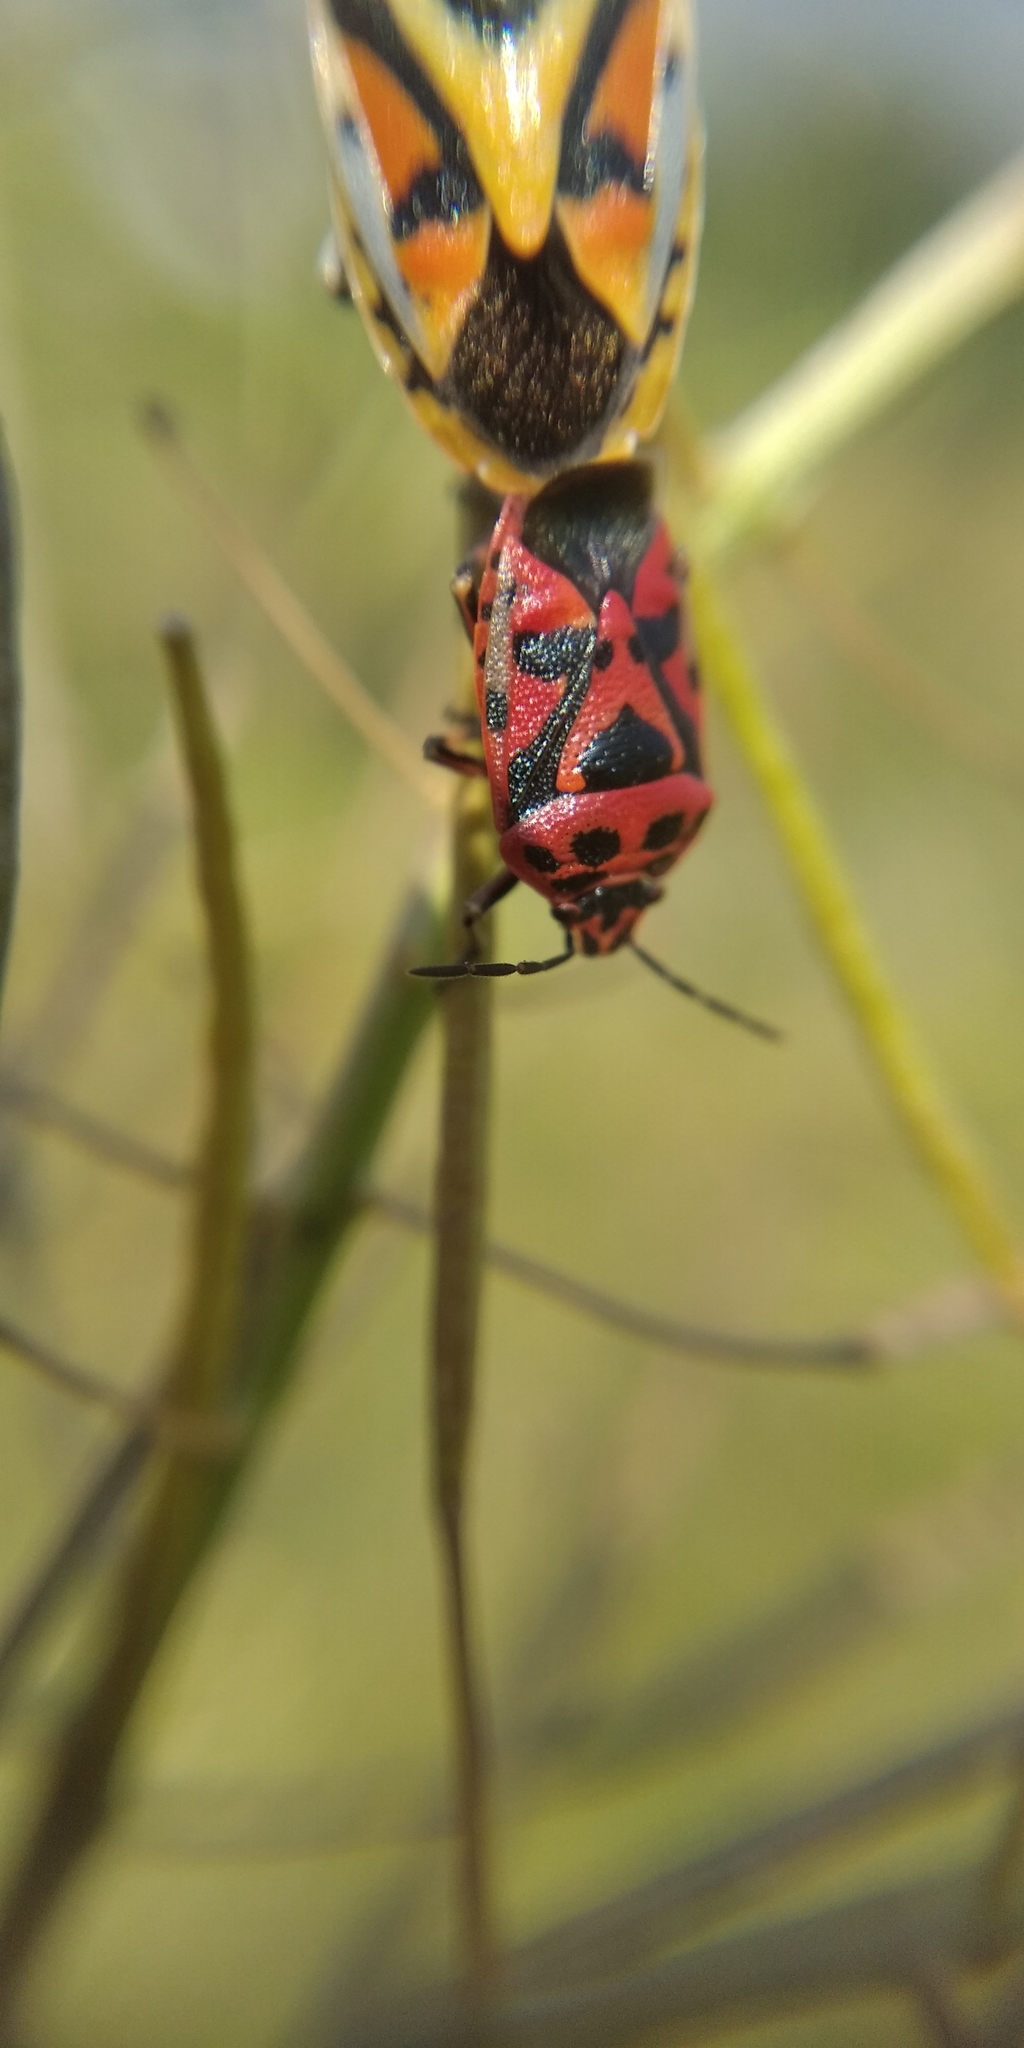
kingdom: Animalia
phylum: Arthropoda
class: Insecta
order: Hemiptera
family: Pentatomidae
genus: Eurydema
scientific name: Eurydema ornata
